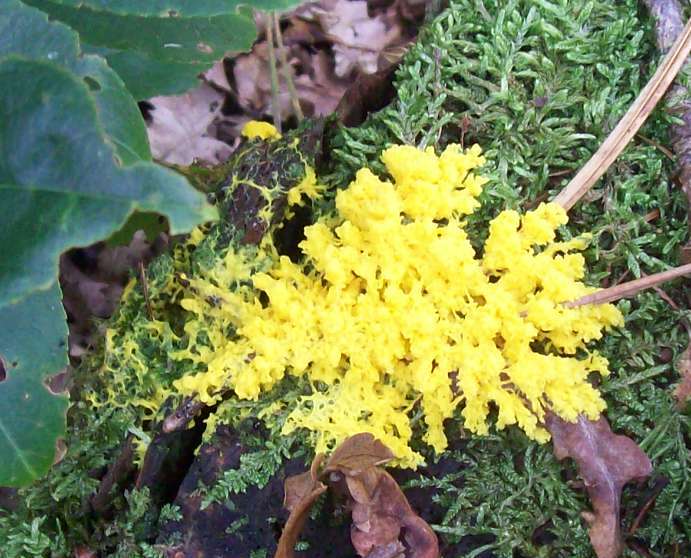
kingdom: Protozoa
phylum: Mycetozoa
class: Myxomycetes
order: Physarales
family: Physaraceae
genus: Fuligo
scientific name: Fuligo septica
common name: Dog vomit slime mold
